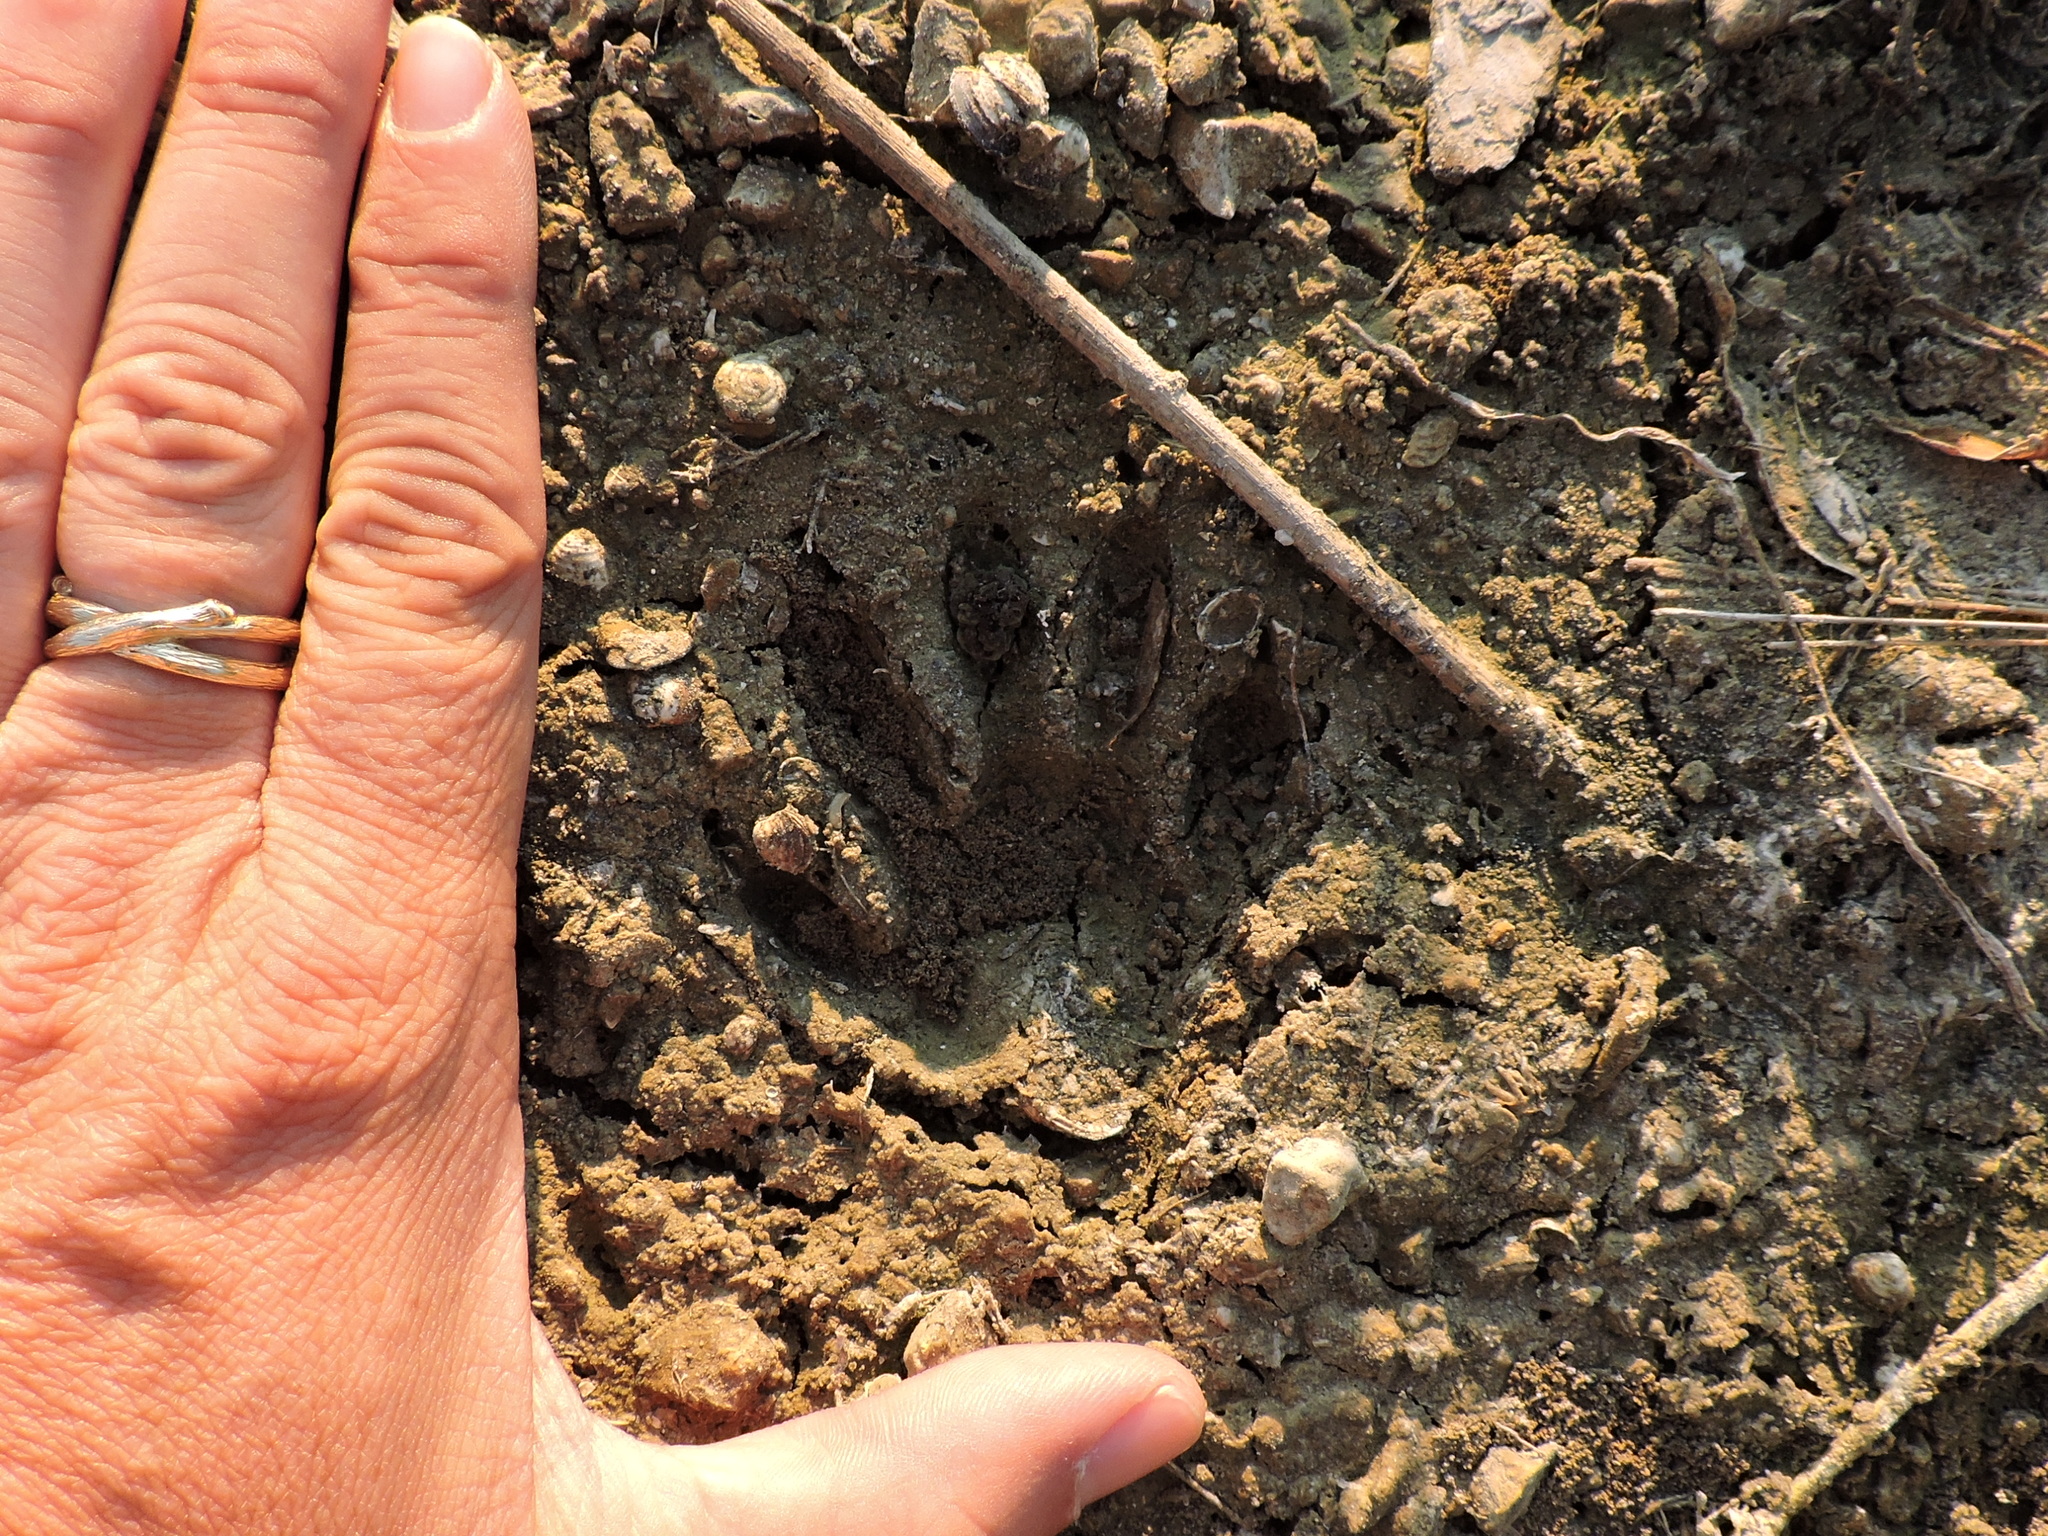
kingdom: Animalia
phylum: Chordata
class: Mammalia
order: Carnivora
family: Procyonidae
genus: Procyon
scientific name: Procyon lotor
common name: Raccoon
